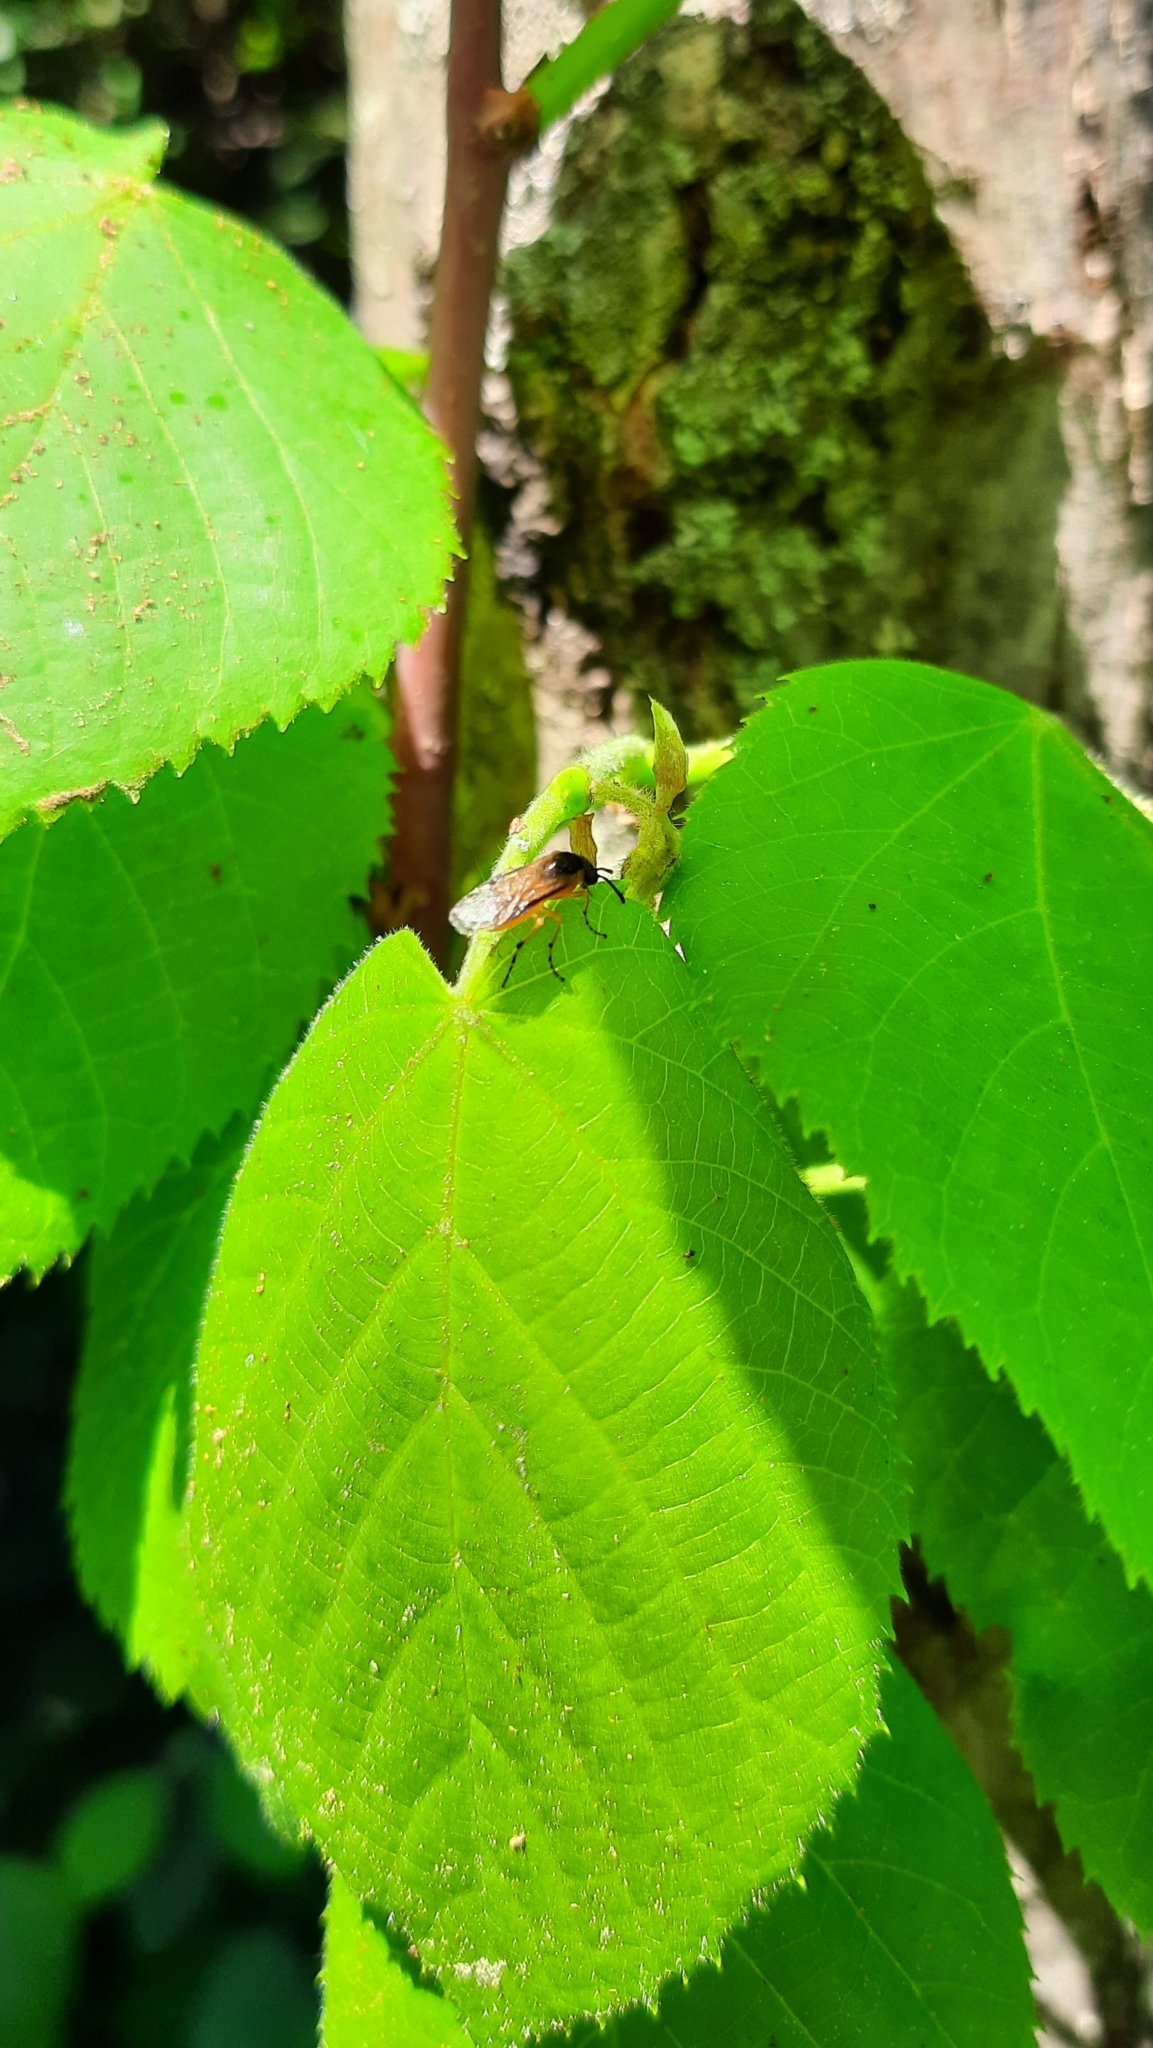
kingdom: Animalia
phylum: Arthropoda
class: Insecta
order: Hymenoptera
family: Tenthredinidae
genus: Athalia
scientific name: Athalia
